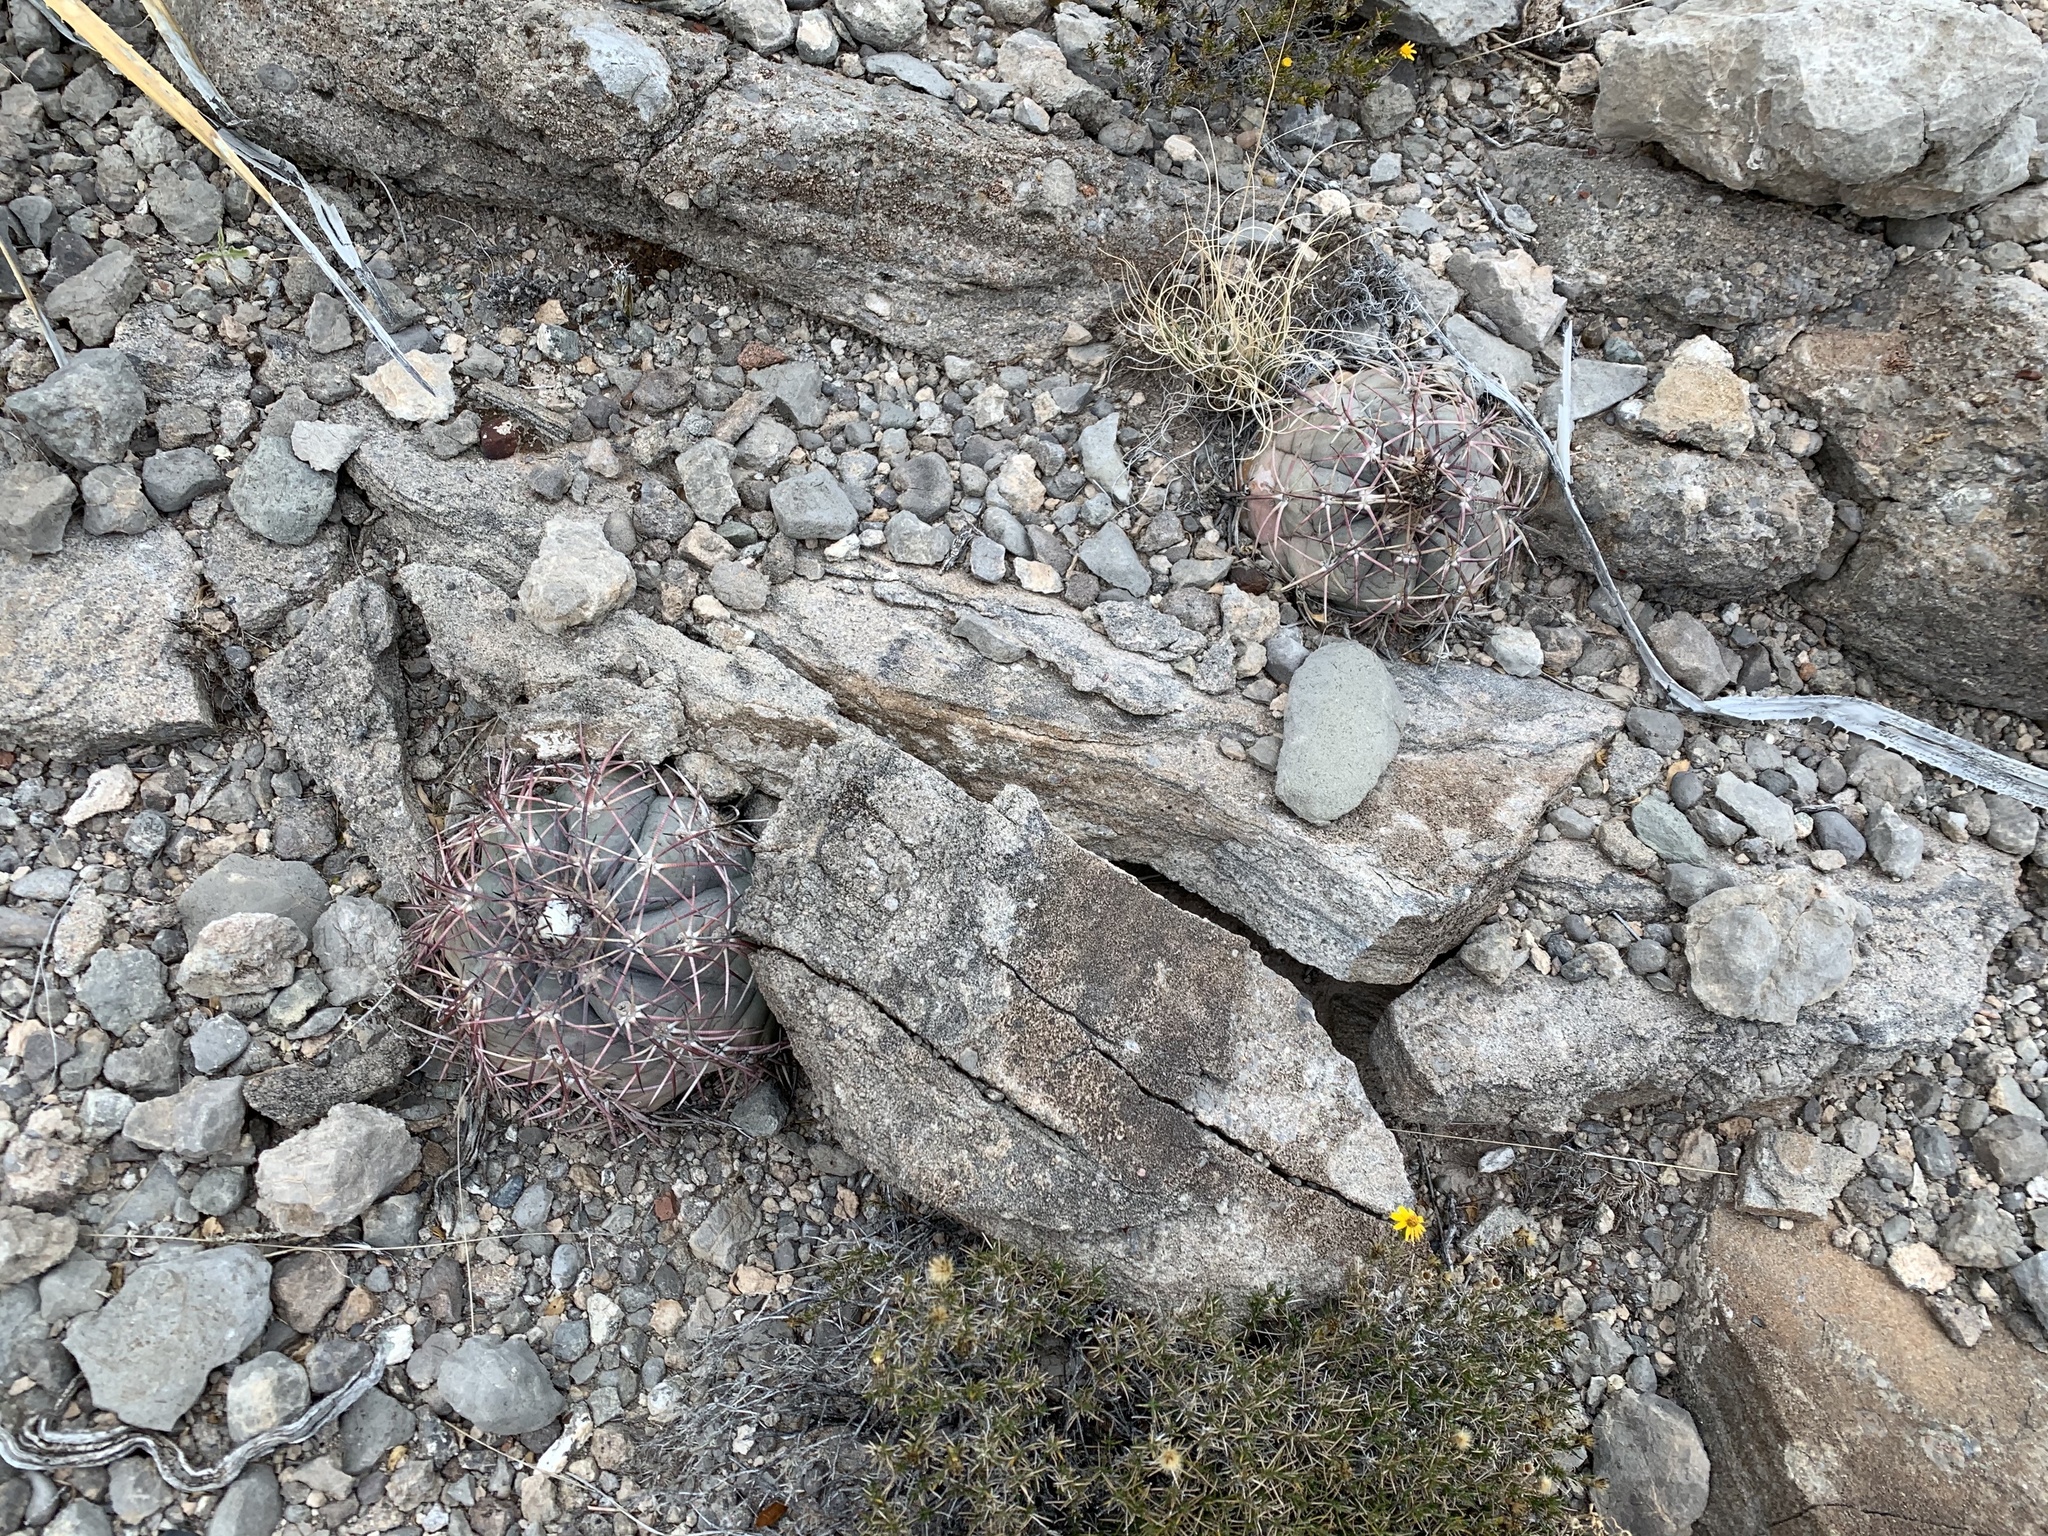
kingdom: Plantae
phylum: Tracheophyta
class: Magnoliopsida
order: Caryophyllales
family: Cactaceae
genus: Echinocactus
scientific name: Echinocactus horizonthalonius
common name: Devilshead
